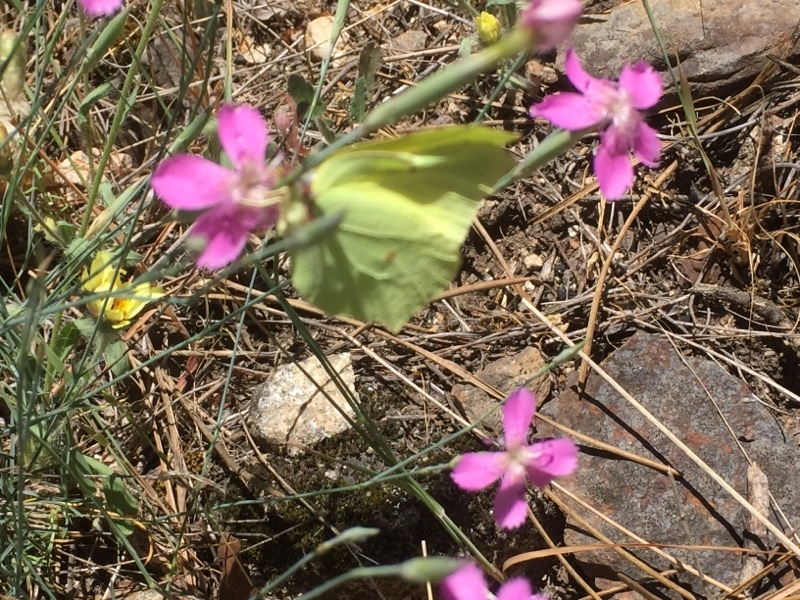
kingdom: Animalia
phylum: Arthropoda
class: Insecta
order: Lepidoptera
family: Pieridae
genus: Gonepteryx
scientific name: Gonepteryx rhamni
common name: Brimstone
